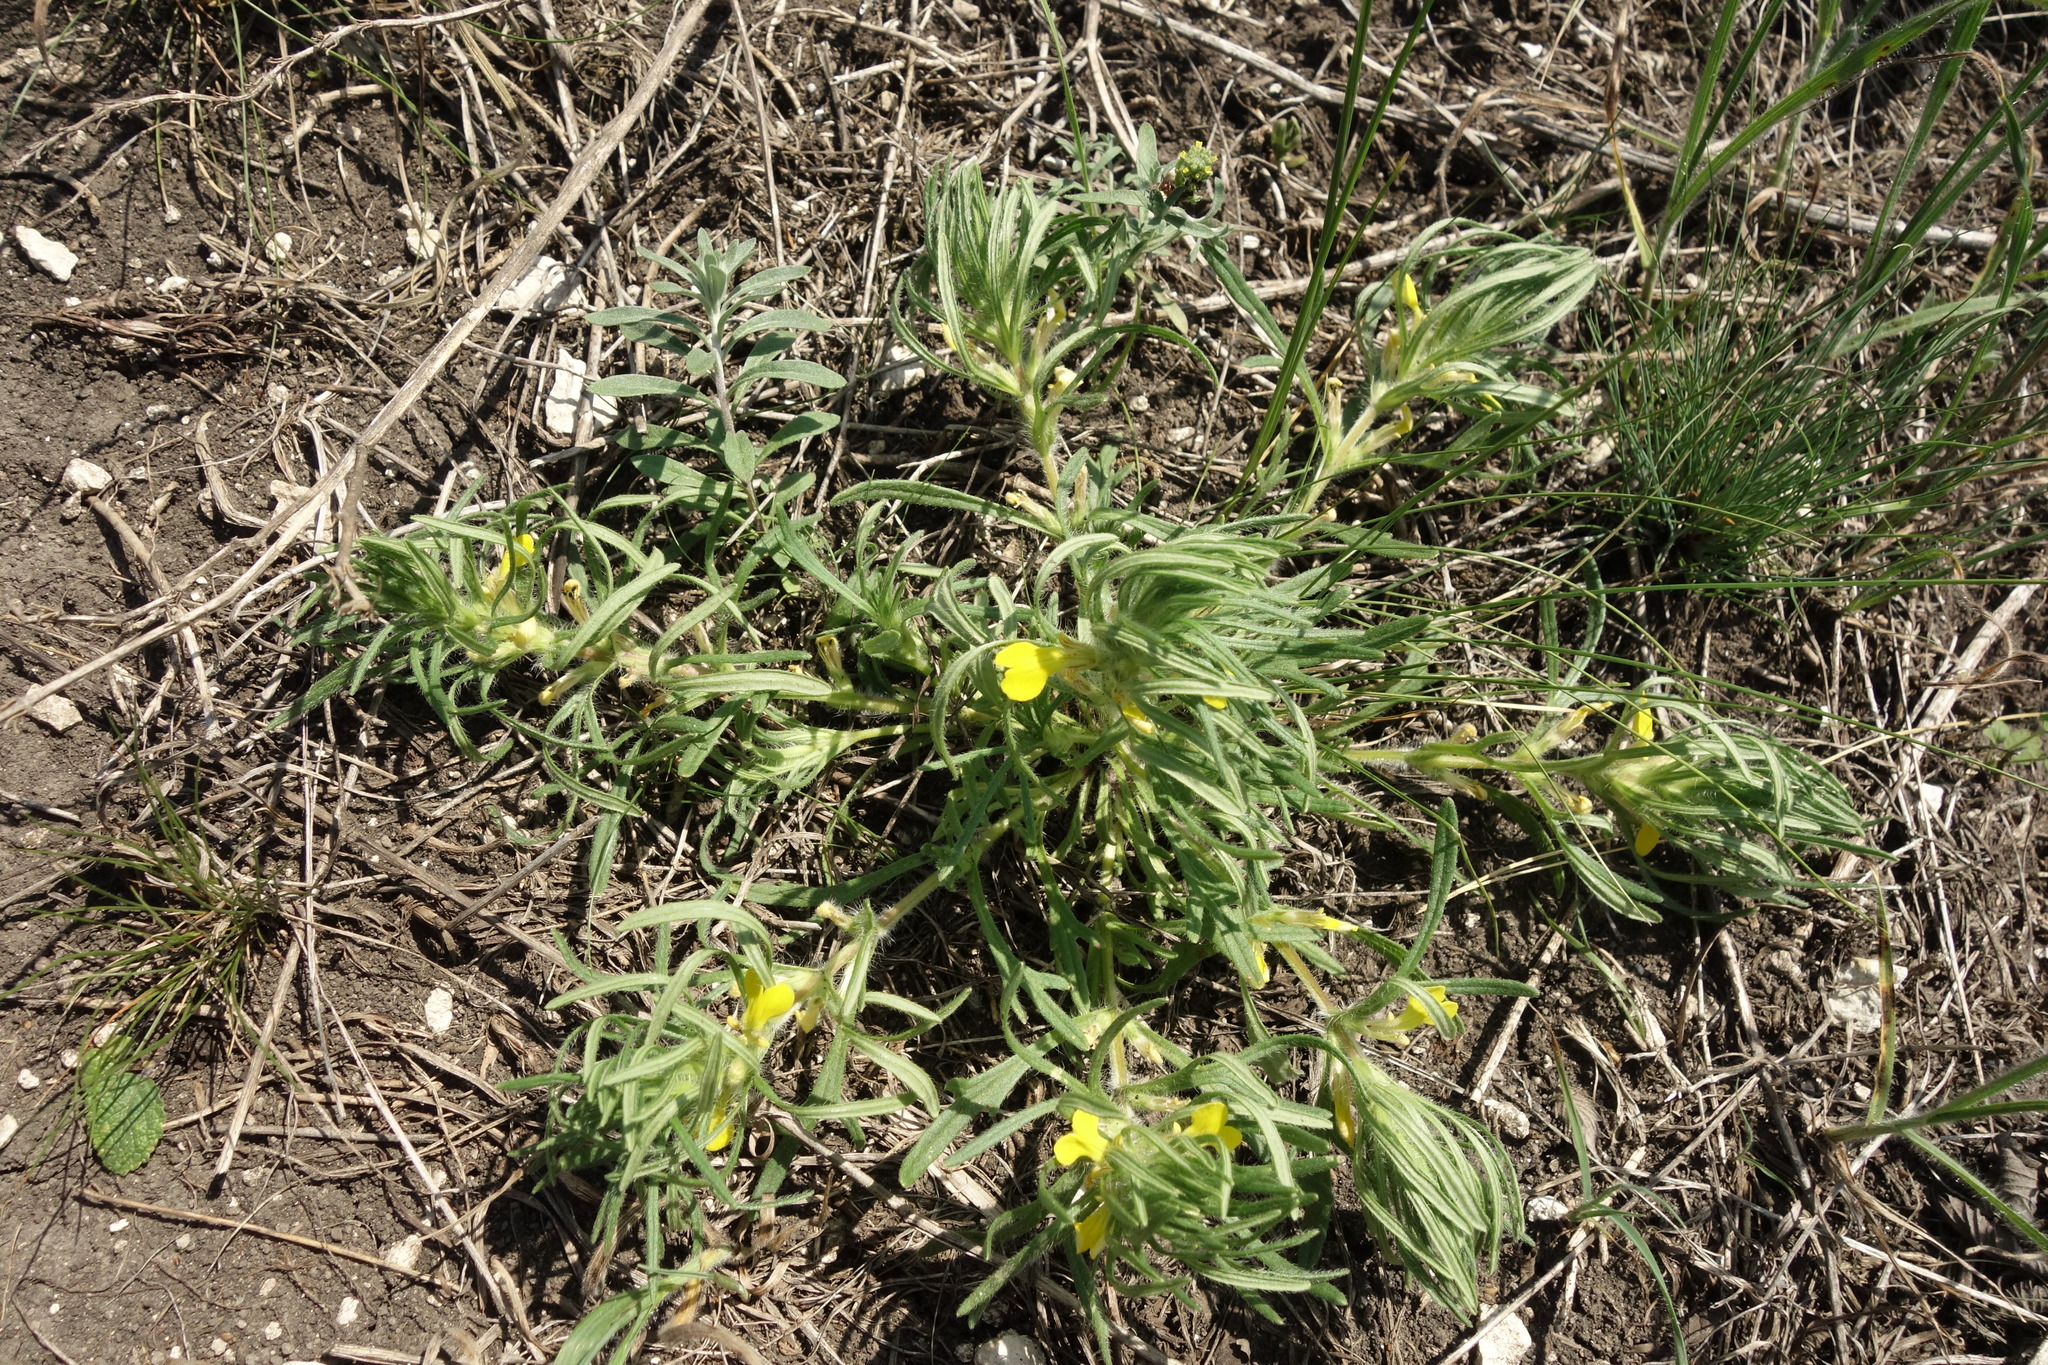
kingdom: Plantae
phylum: Tracheophyta
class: Magnoliopsida
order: Lamiales
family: Lamiaceae
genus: Ajuga
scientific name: Ajuga chamaepitys
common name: Ground-pine
